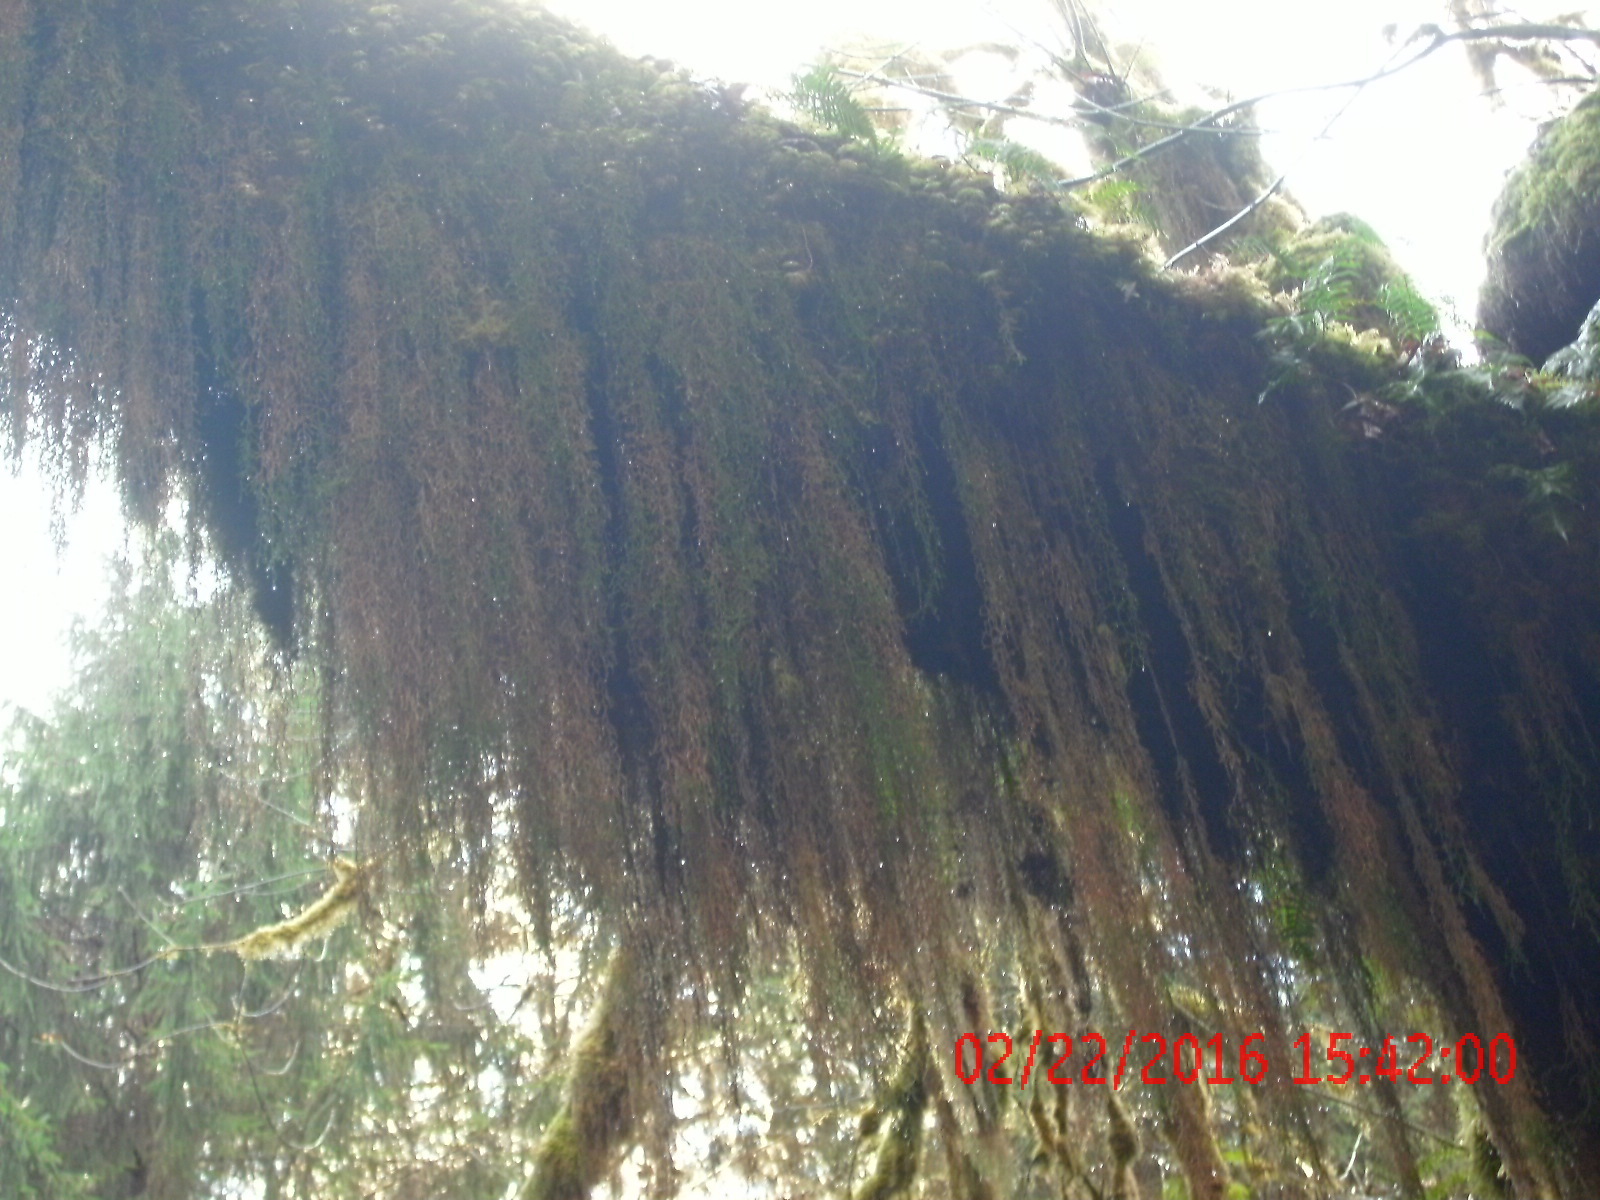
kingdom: Plantae
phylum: Bryophyta
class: Bryopsida
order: Hypnales
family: Lembophyllaceae
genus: Pseudisothecium
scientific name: Pseudisothecium stoloniferum
